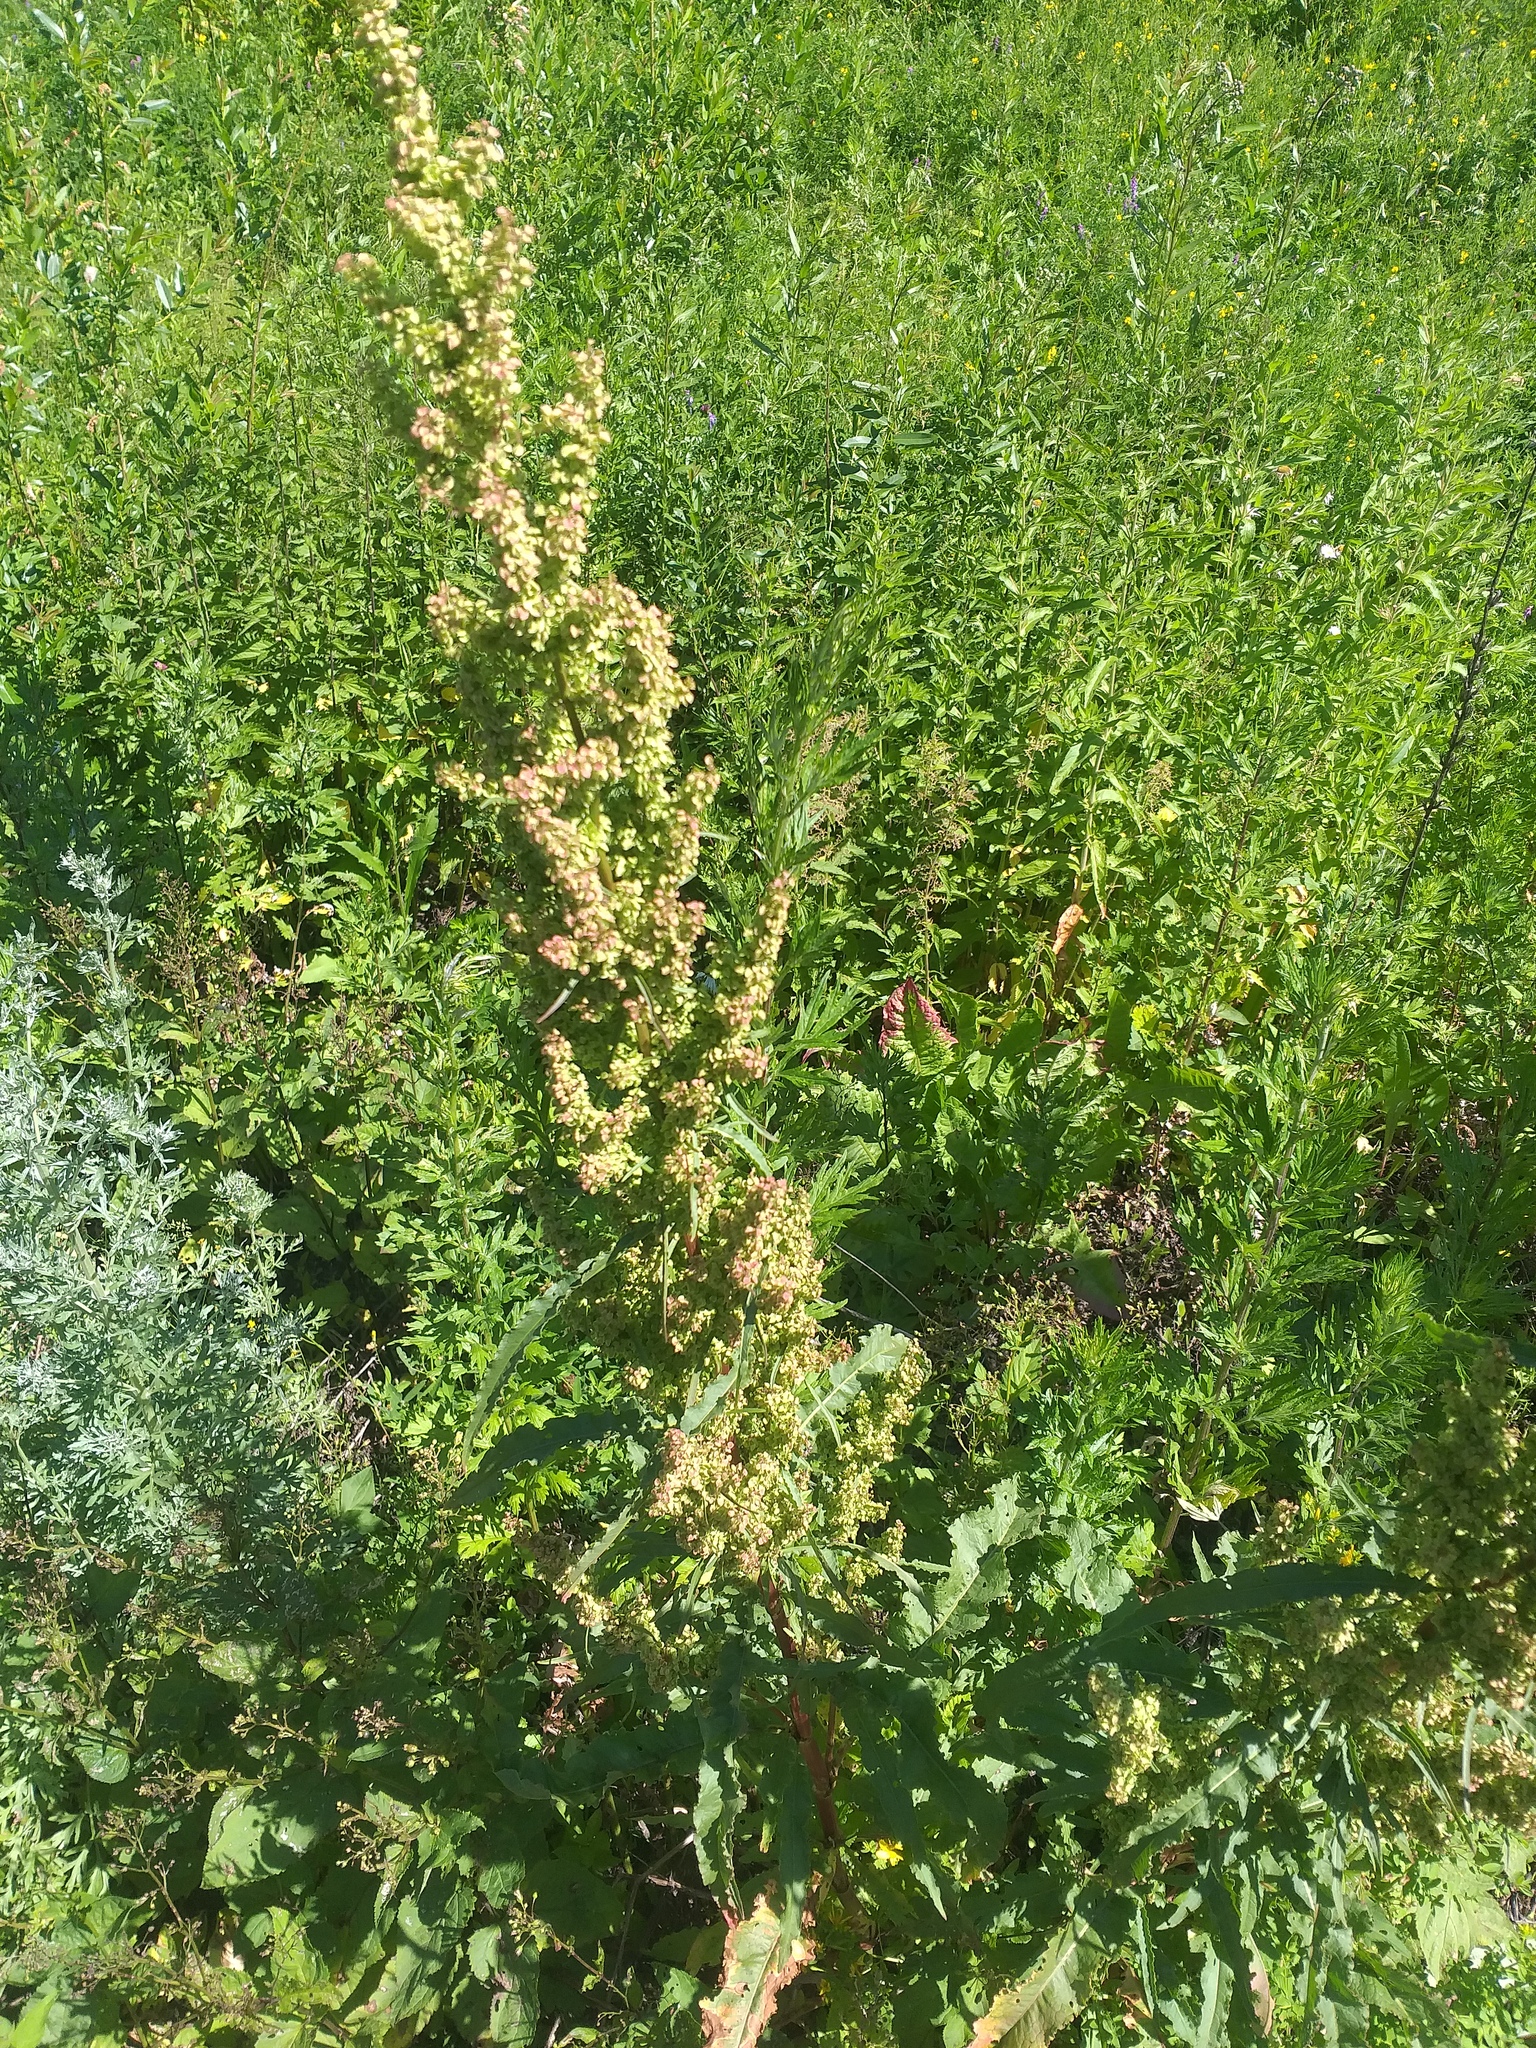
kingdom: Plantae
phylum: Tracheophyta
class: Magnoliopsida
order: Caryophyllales
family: Polygonaceae
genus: Rumex
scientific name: Rumex pseudonatronatus
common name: Field dock
